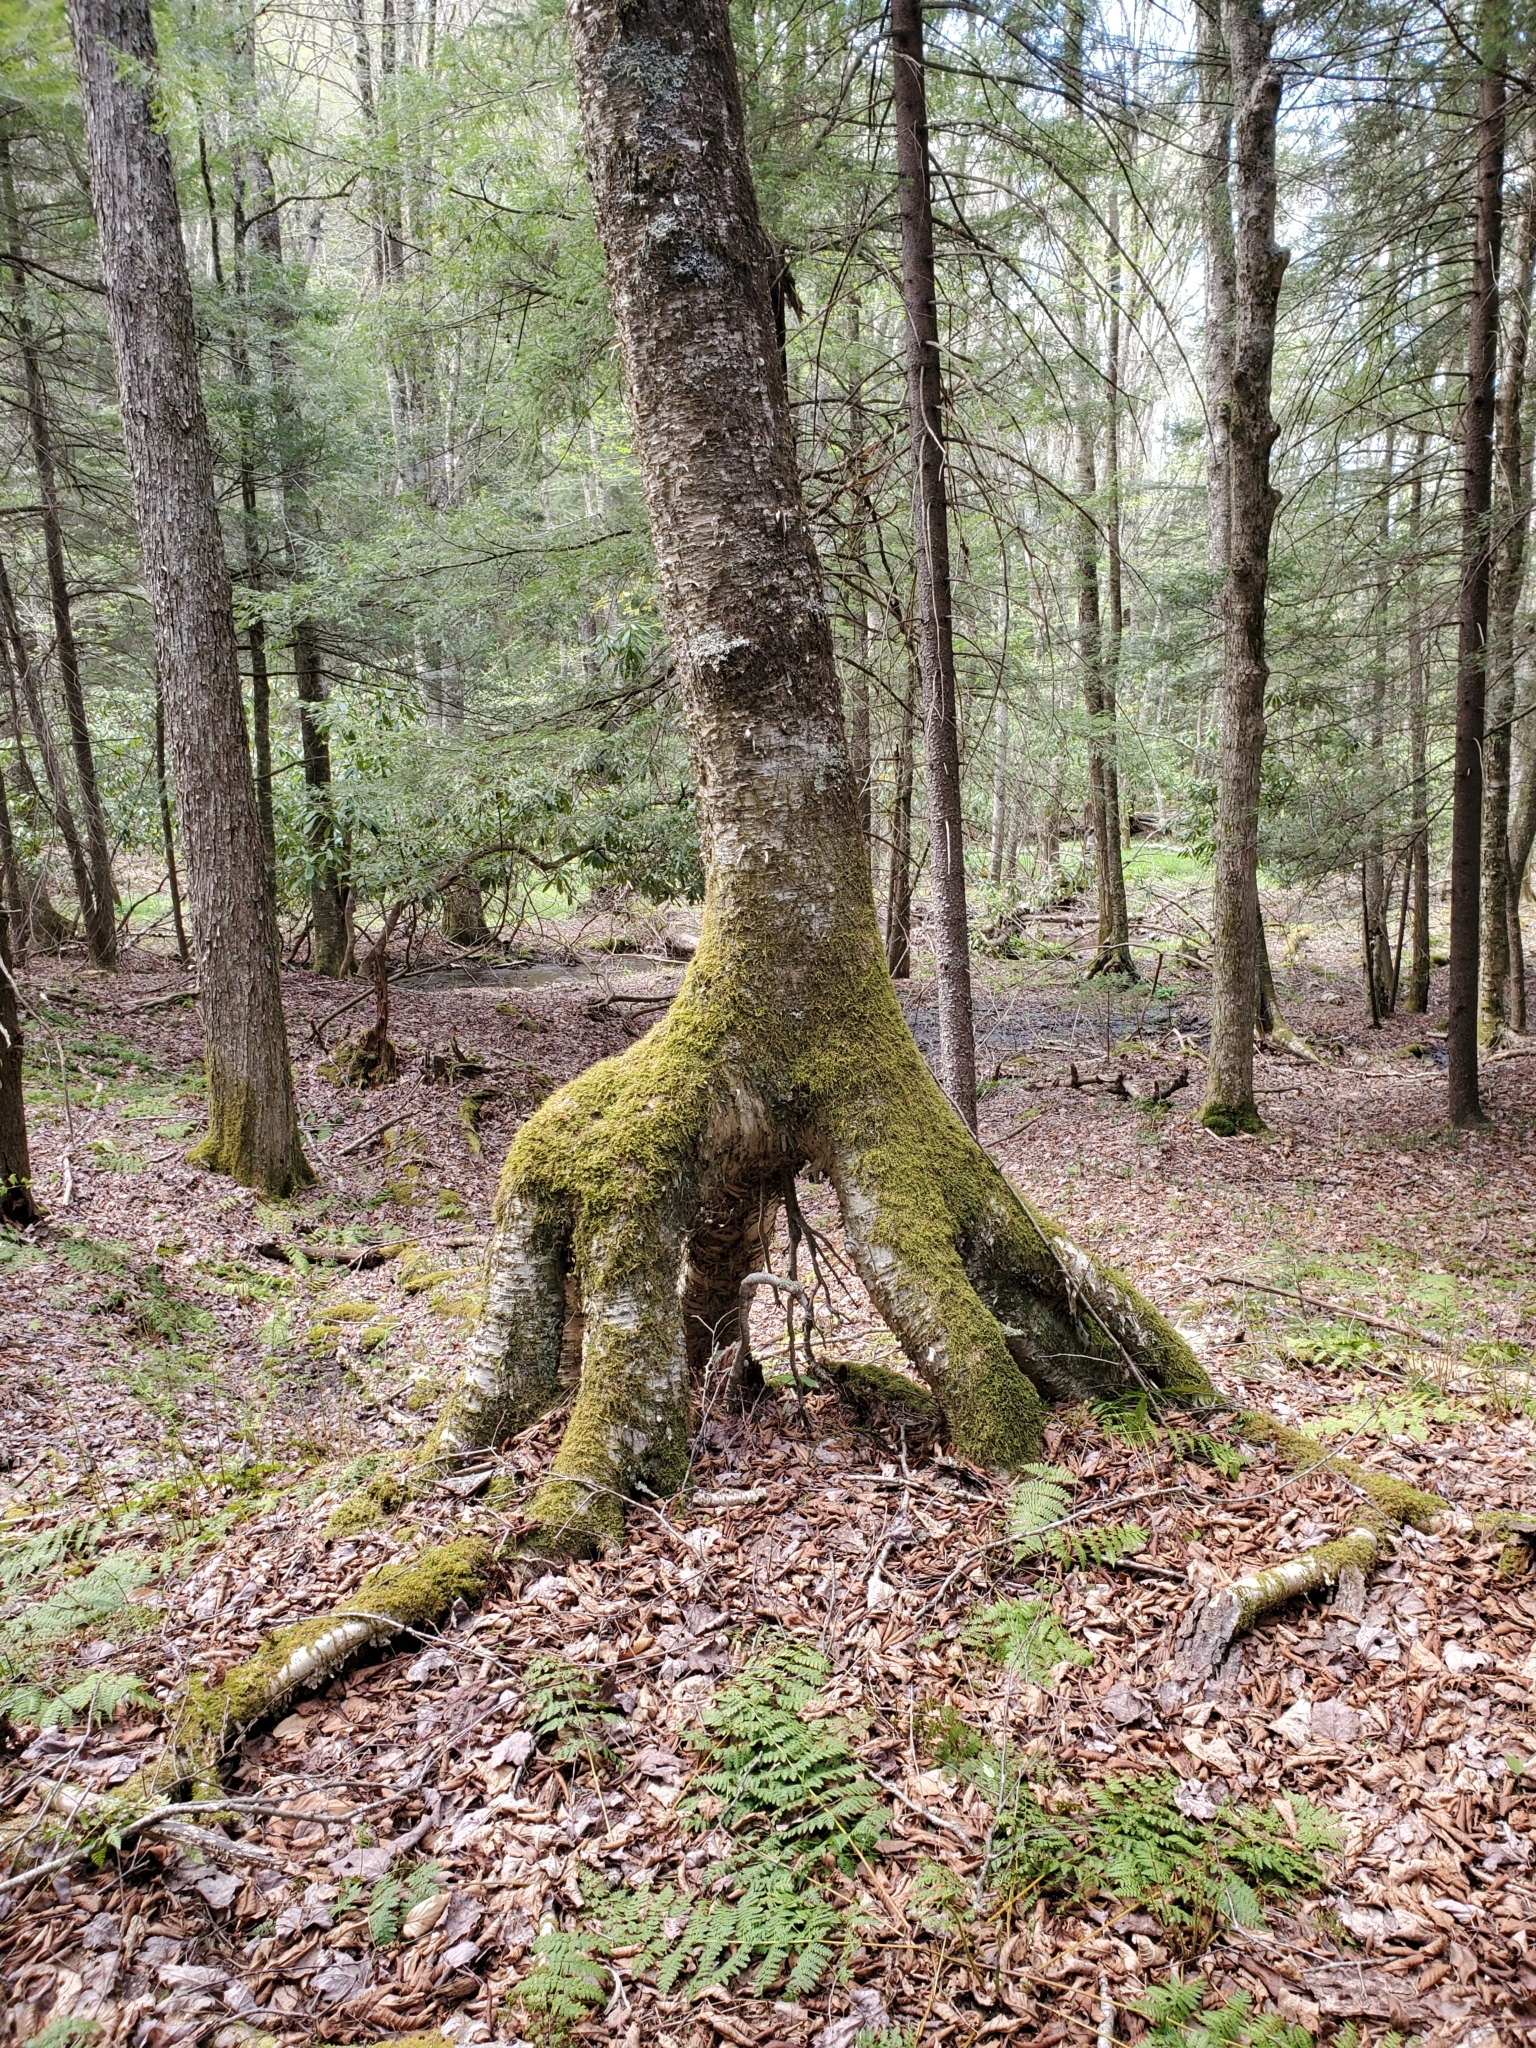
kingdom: Plantae
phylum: Tracheophyta
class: Magnoliopsida
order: Fagales
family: Betulaceae
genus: Betula
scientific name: Betula alleghaniensis
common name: Yellow birch
